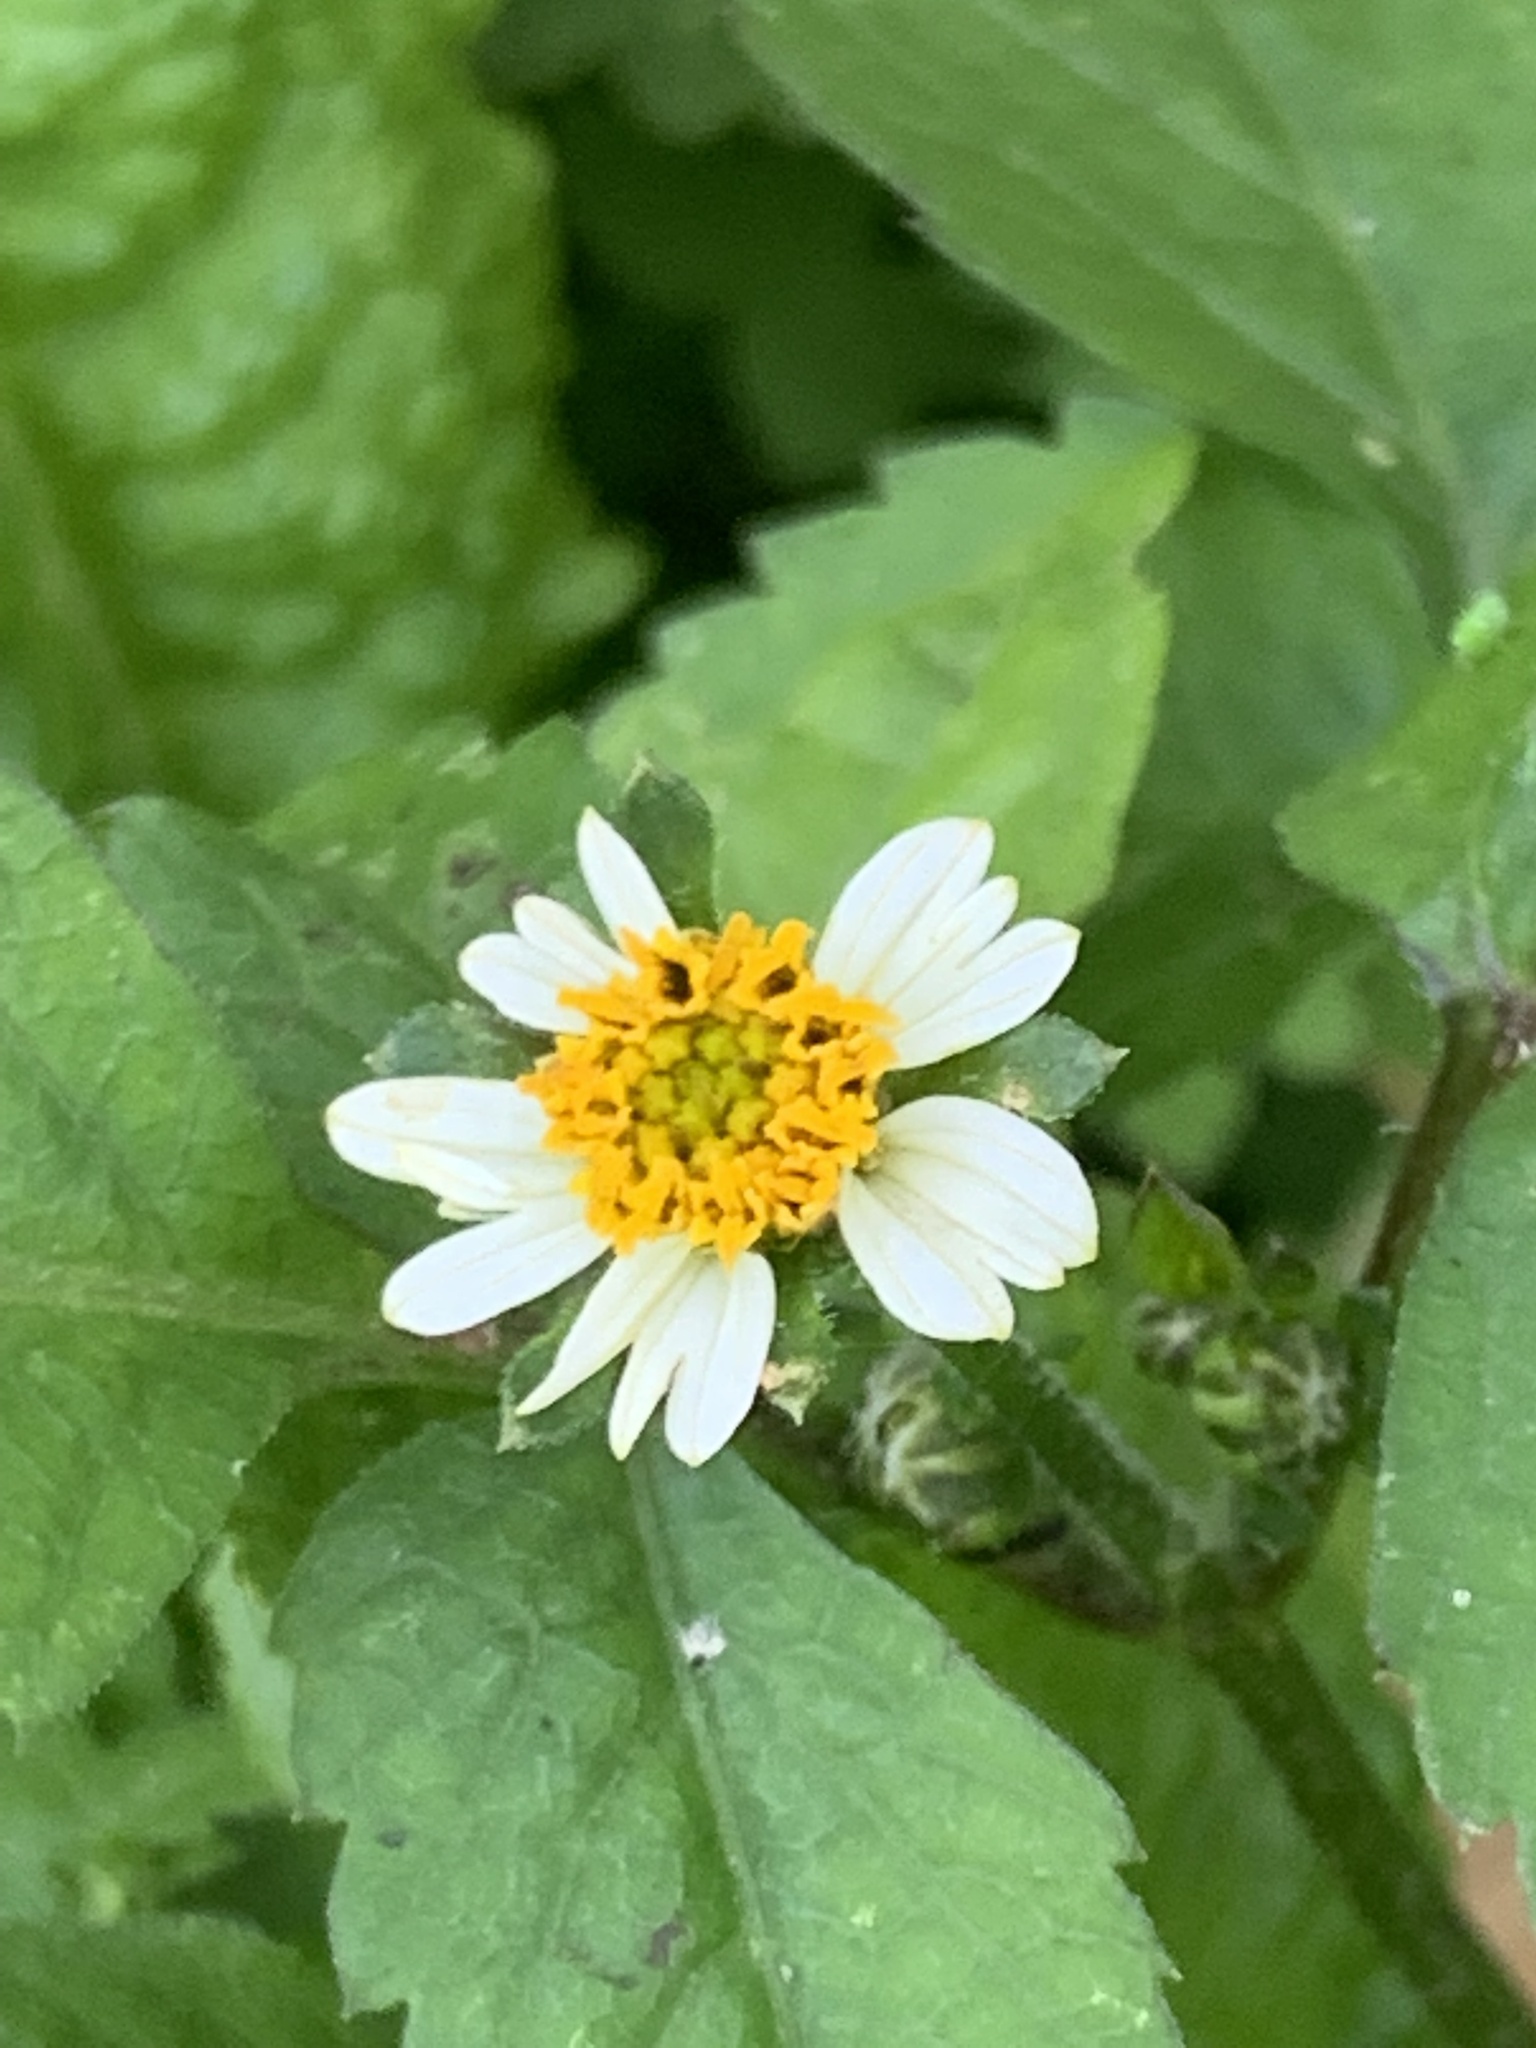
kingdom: Plantae
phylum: Tracheophyta
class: Magnoliopsida
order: Asterales
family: Asteraceae
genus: Bidens
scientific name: Bidens pilosa
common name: Black-jack
